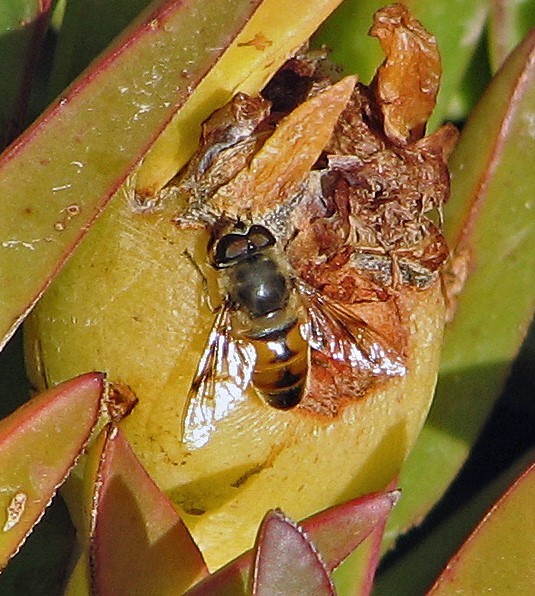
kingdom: Animalia
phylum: Arthropoda
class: Insecta
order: Diptera
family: Syrphidae
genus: Eristalis
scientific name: Eristalis tenax
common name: Drone fly
